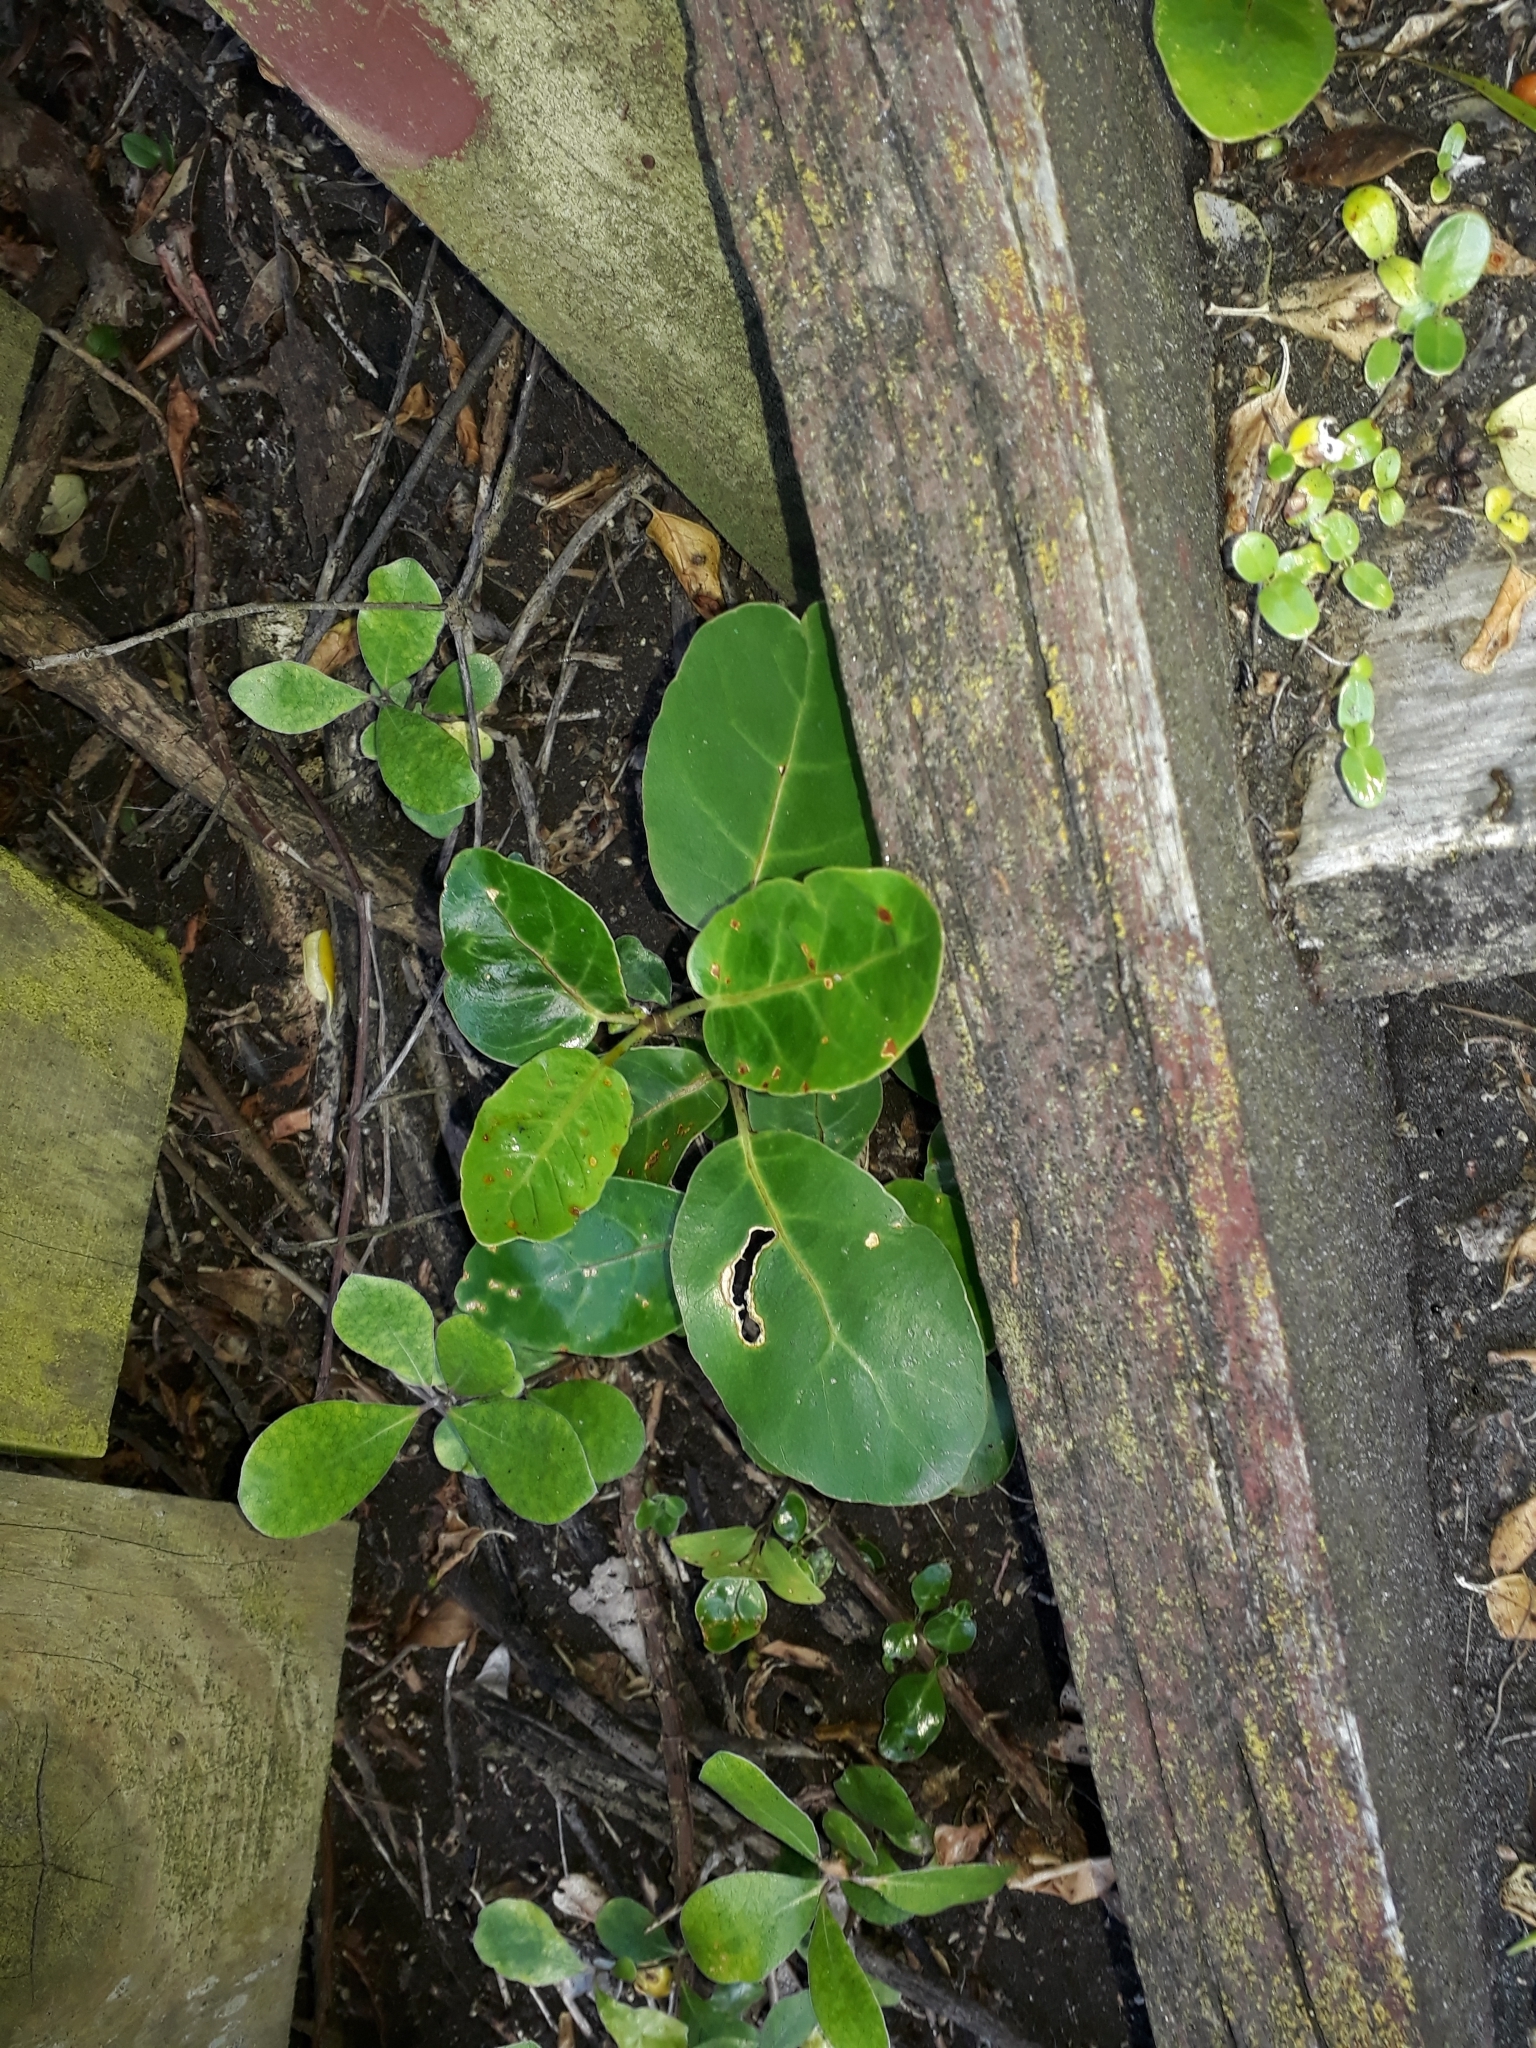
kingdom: Plantae
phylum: Tracheophyta
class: Magnoliopsida
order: Apiales
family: Araliaceae
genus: Meryta
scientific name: Meryta sinclairii
